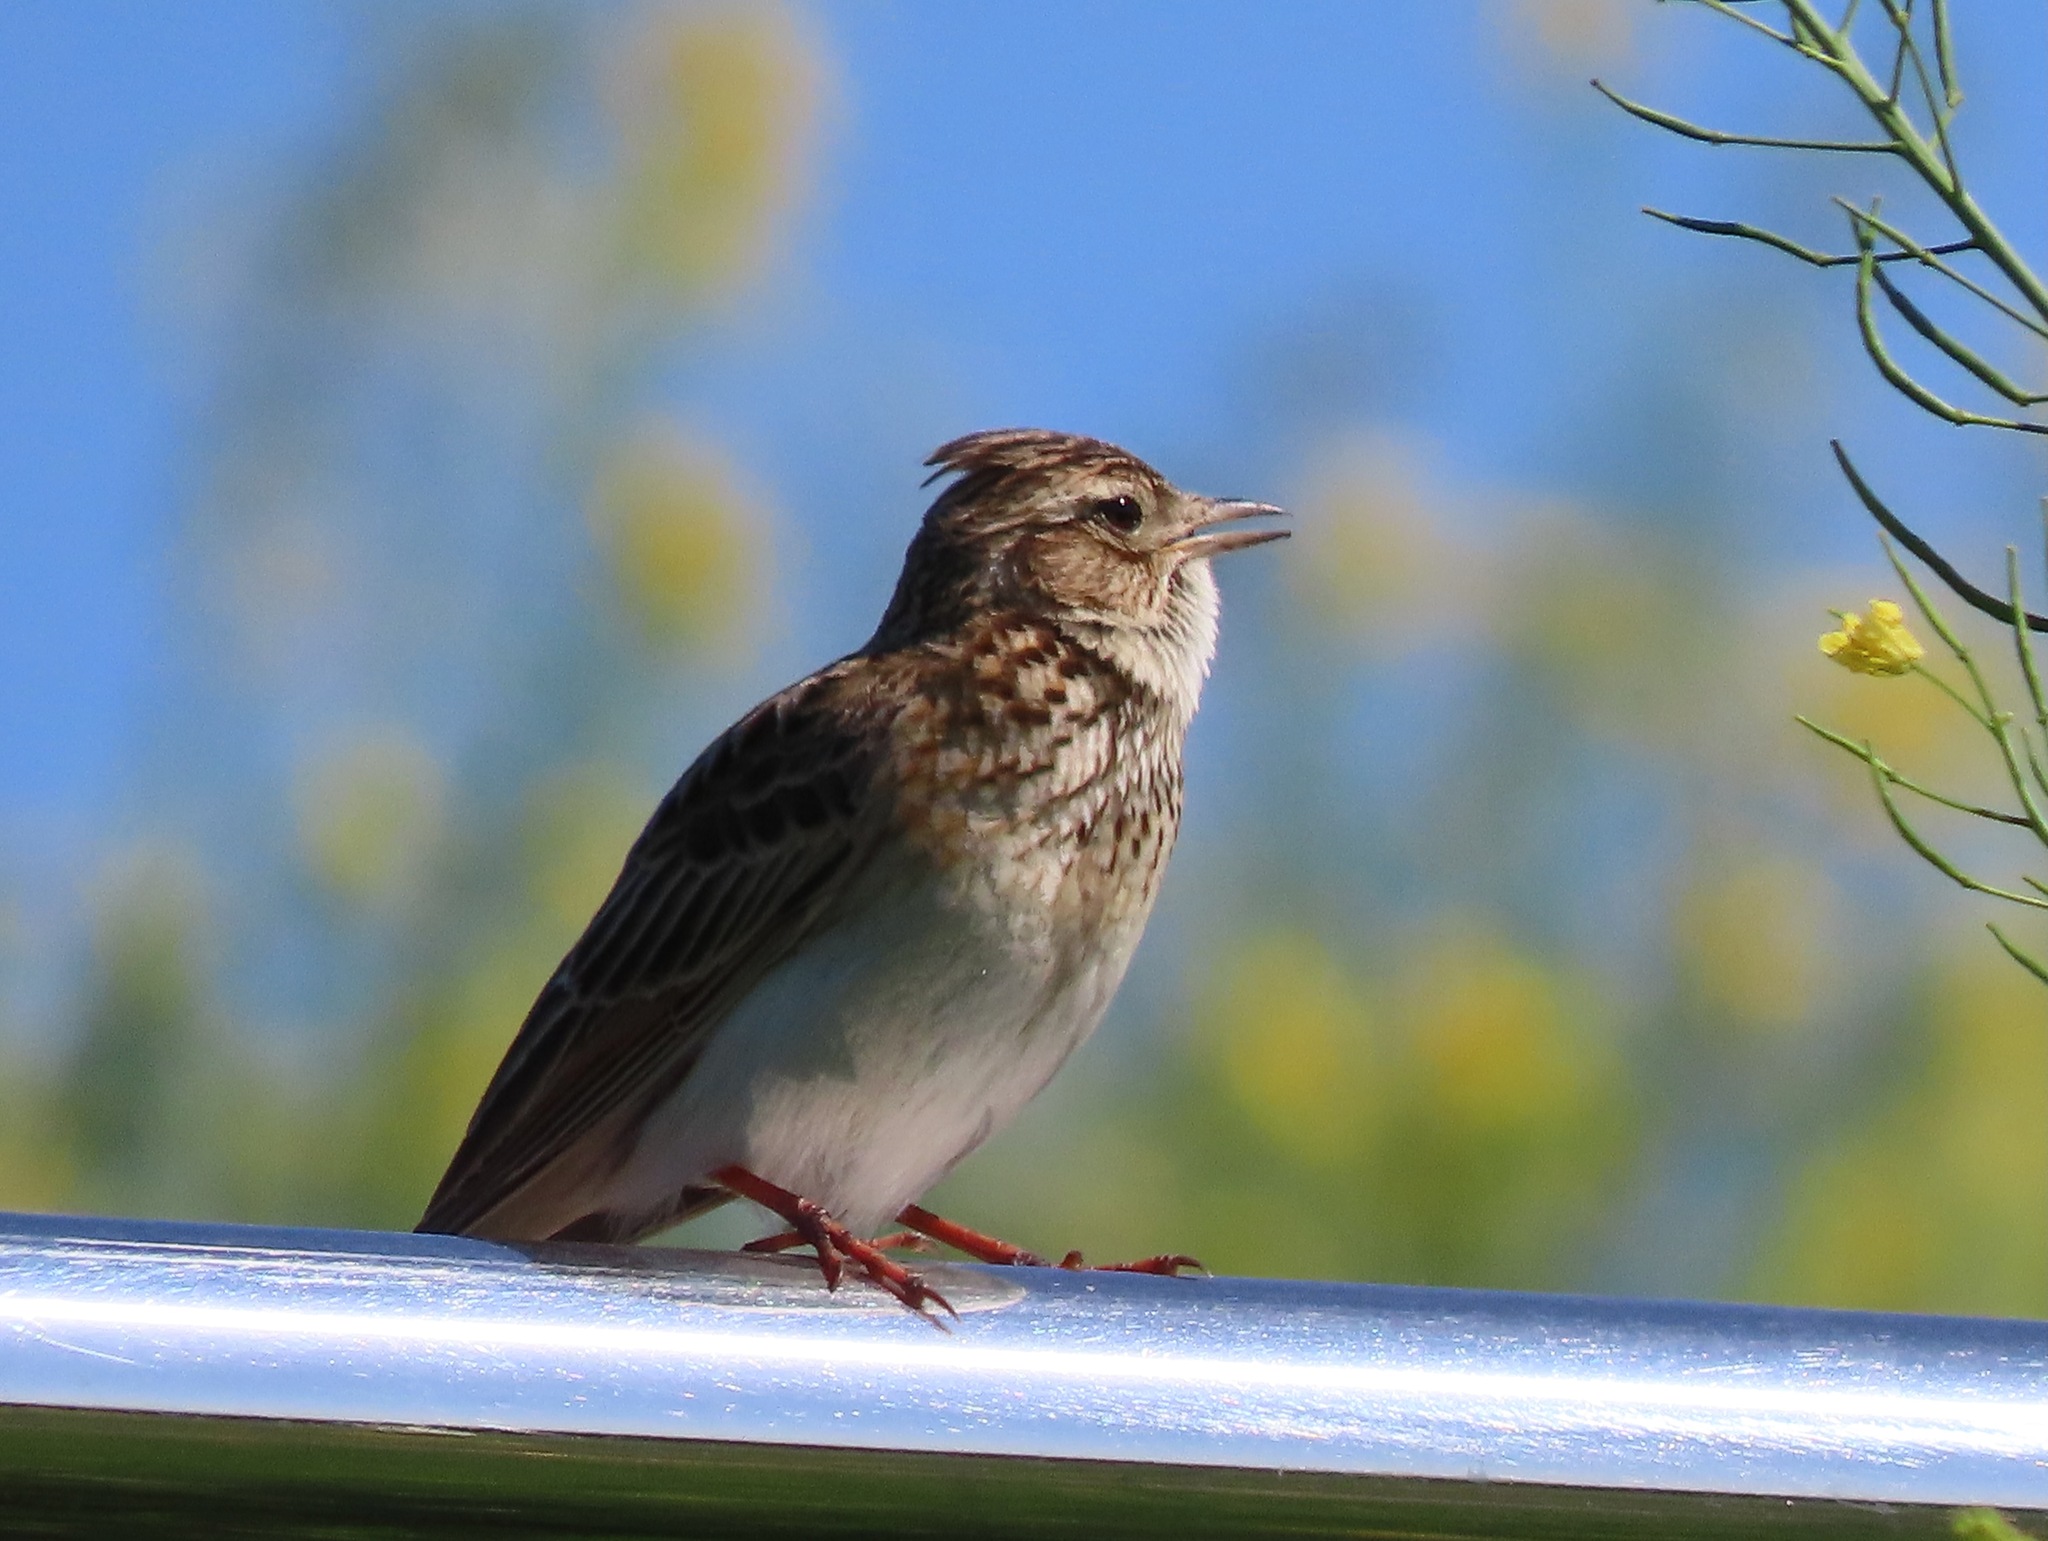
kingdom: Animalia
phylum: Chordata
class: Aves
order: Passeriformes
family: Alaudidae
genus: Alauda
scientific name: Alauda arvensis
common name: Eurasian skylark
